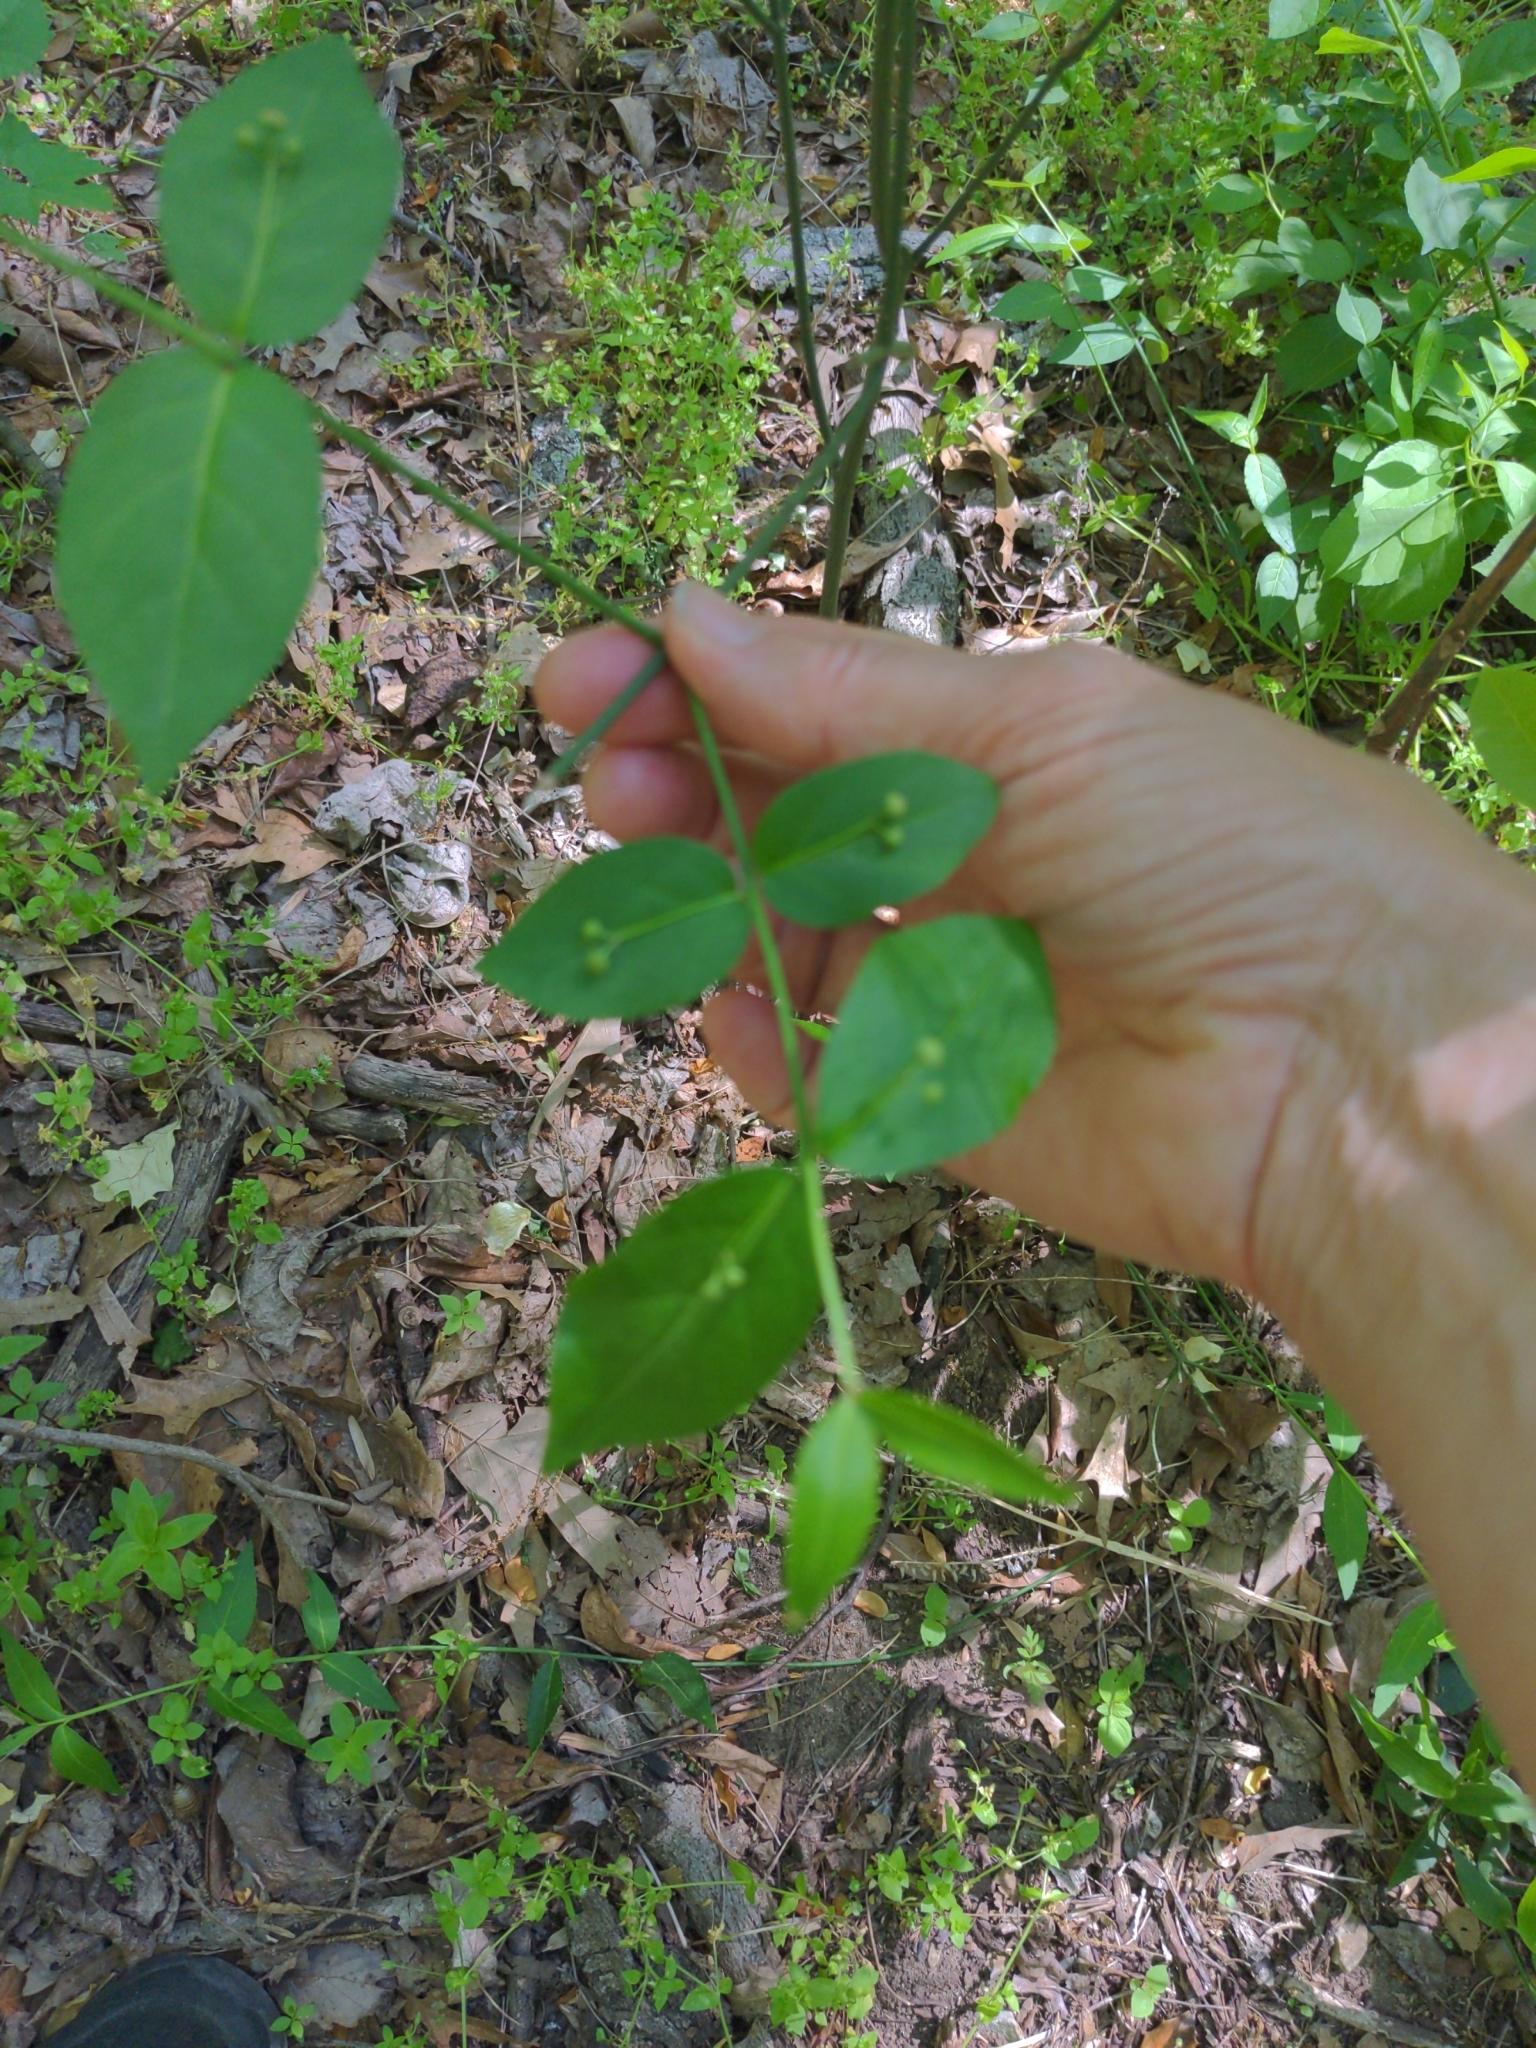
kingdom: Plantae
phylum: Tracheophyta
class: Magnoliopsida
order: Celastrales
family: Celastraceae
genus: Euonymus
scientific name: Euonymus americanus
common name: Bursting-heart
